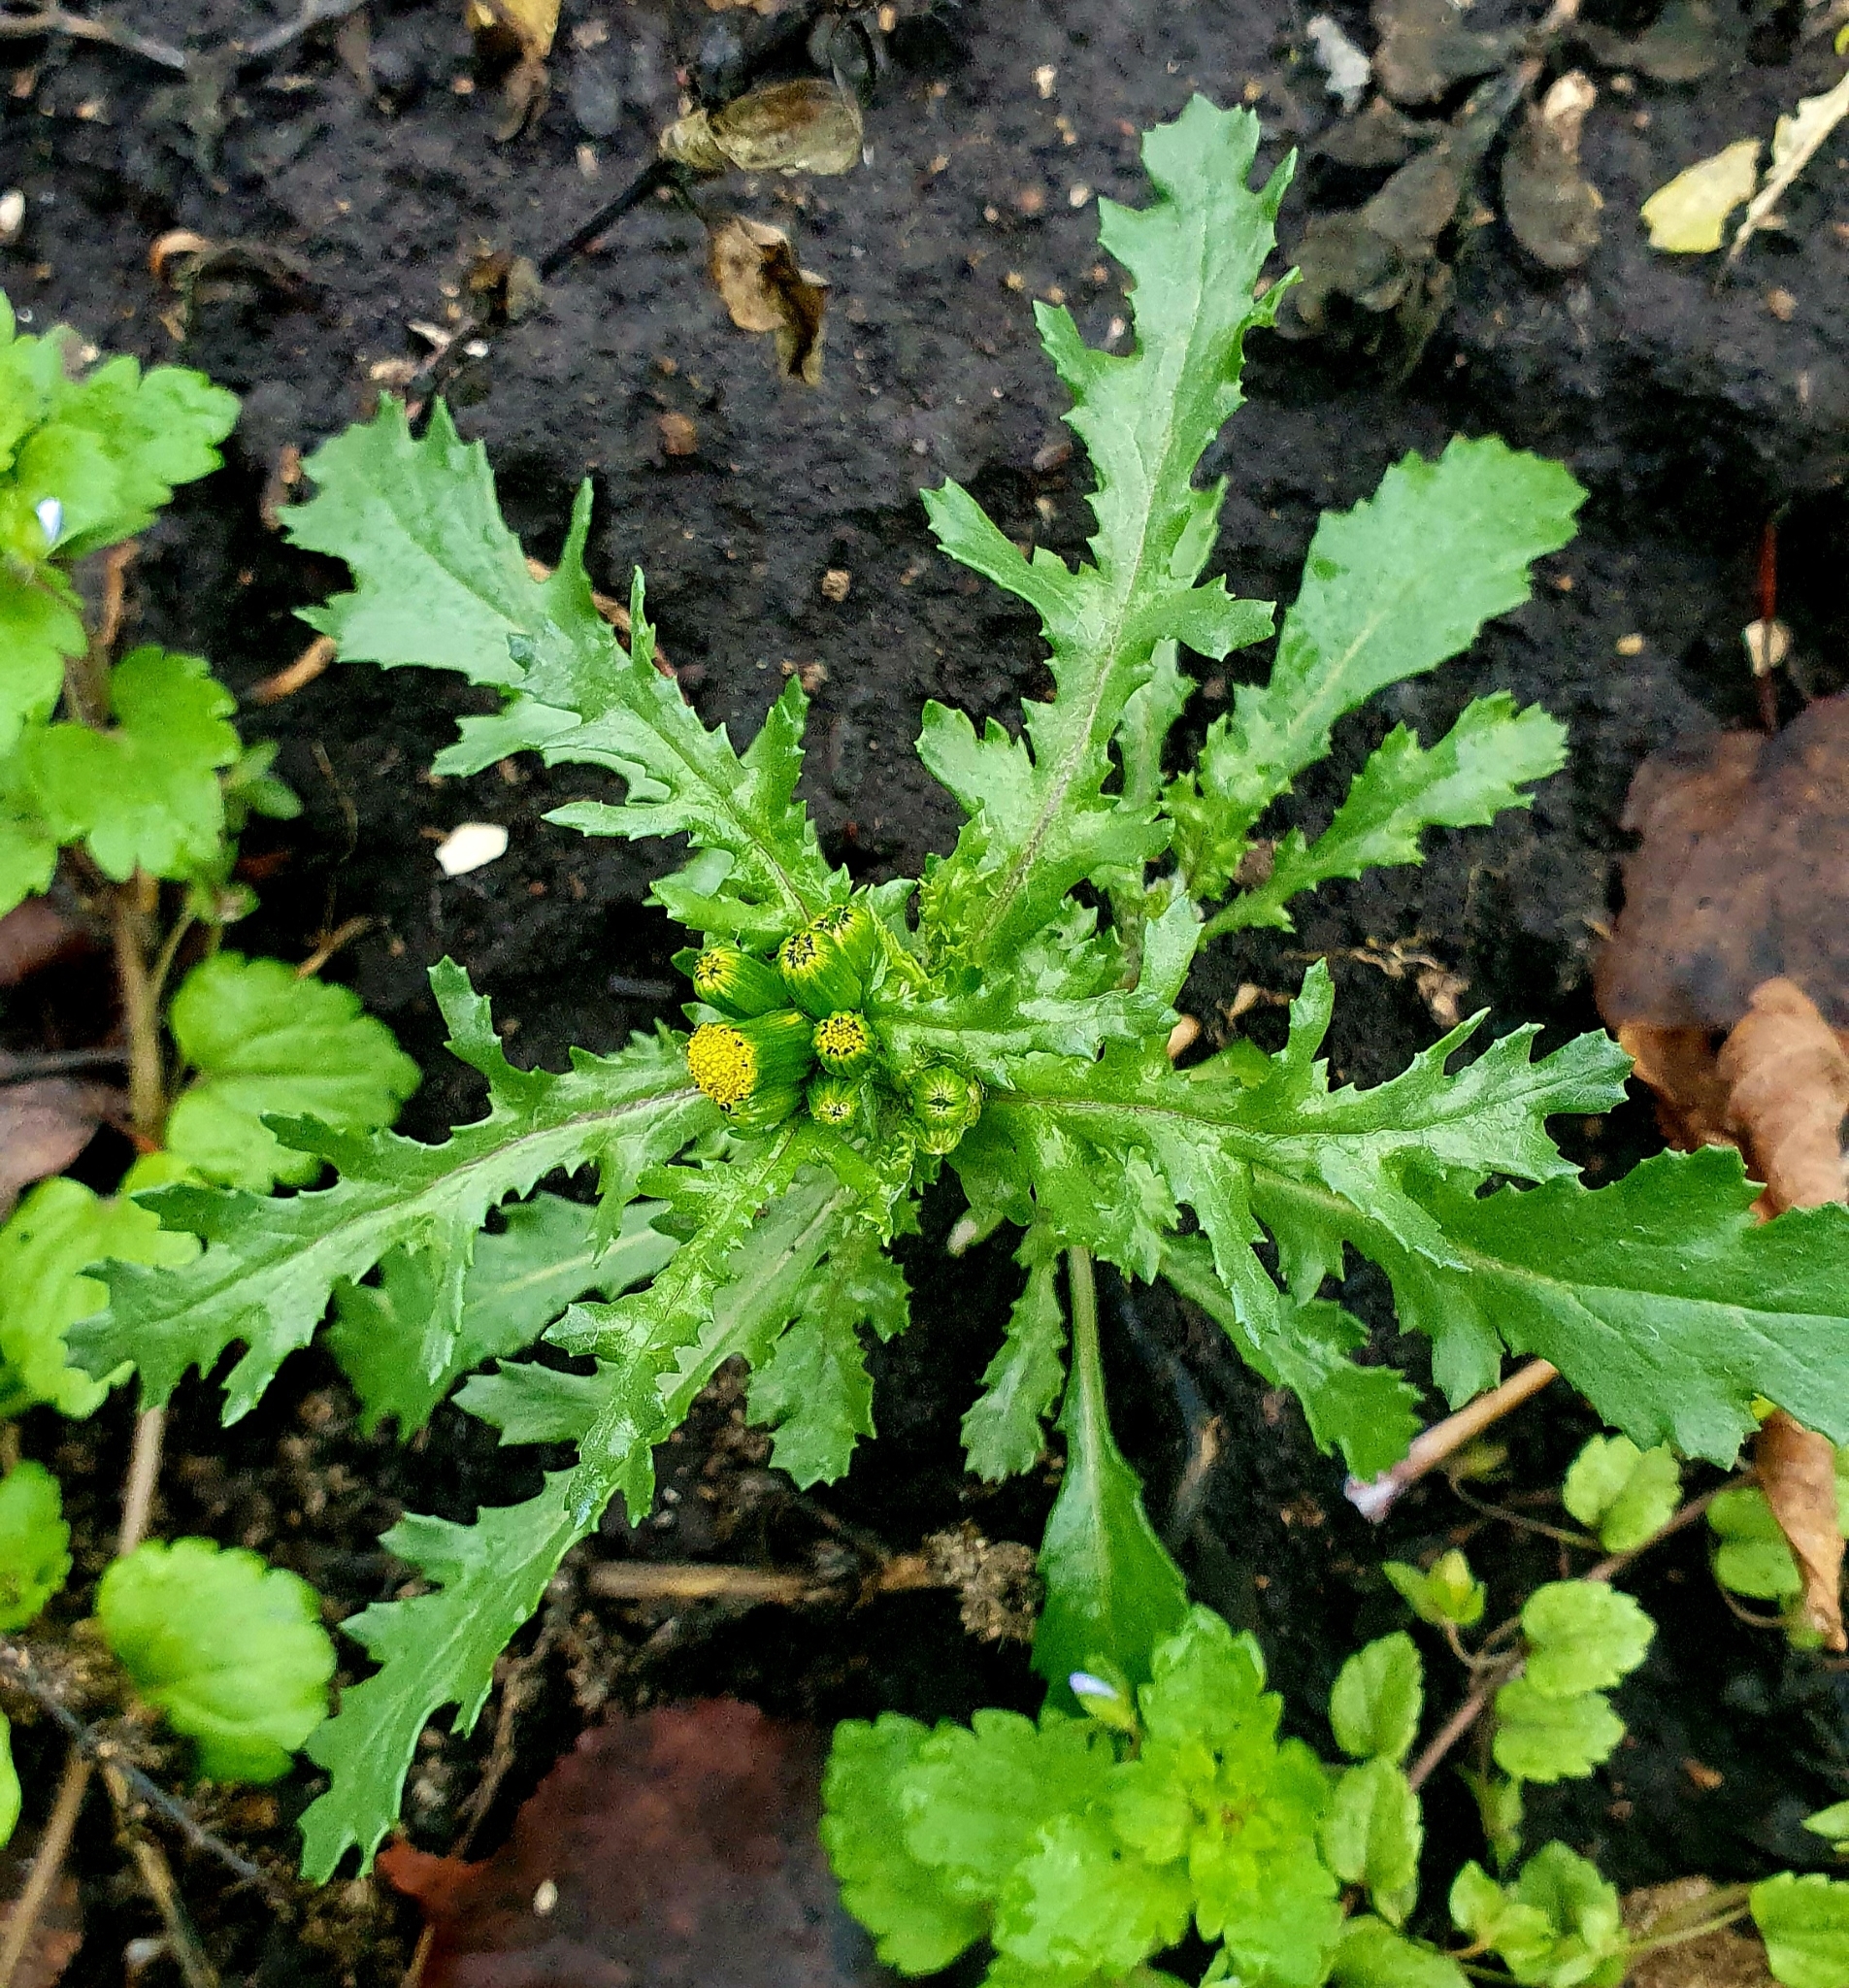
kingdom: Plantae
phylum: Tracheophyta
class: Magnoliopsida
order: Asterales
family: Asteraceae
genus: Senecio
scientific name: Senecio vulgaris
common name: Old-man-in-the-spring
